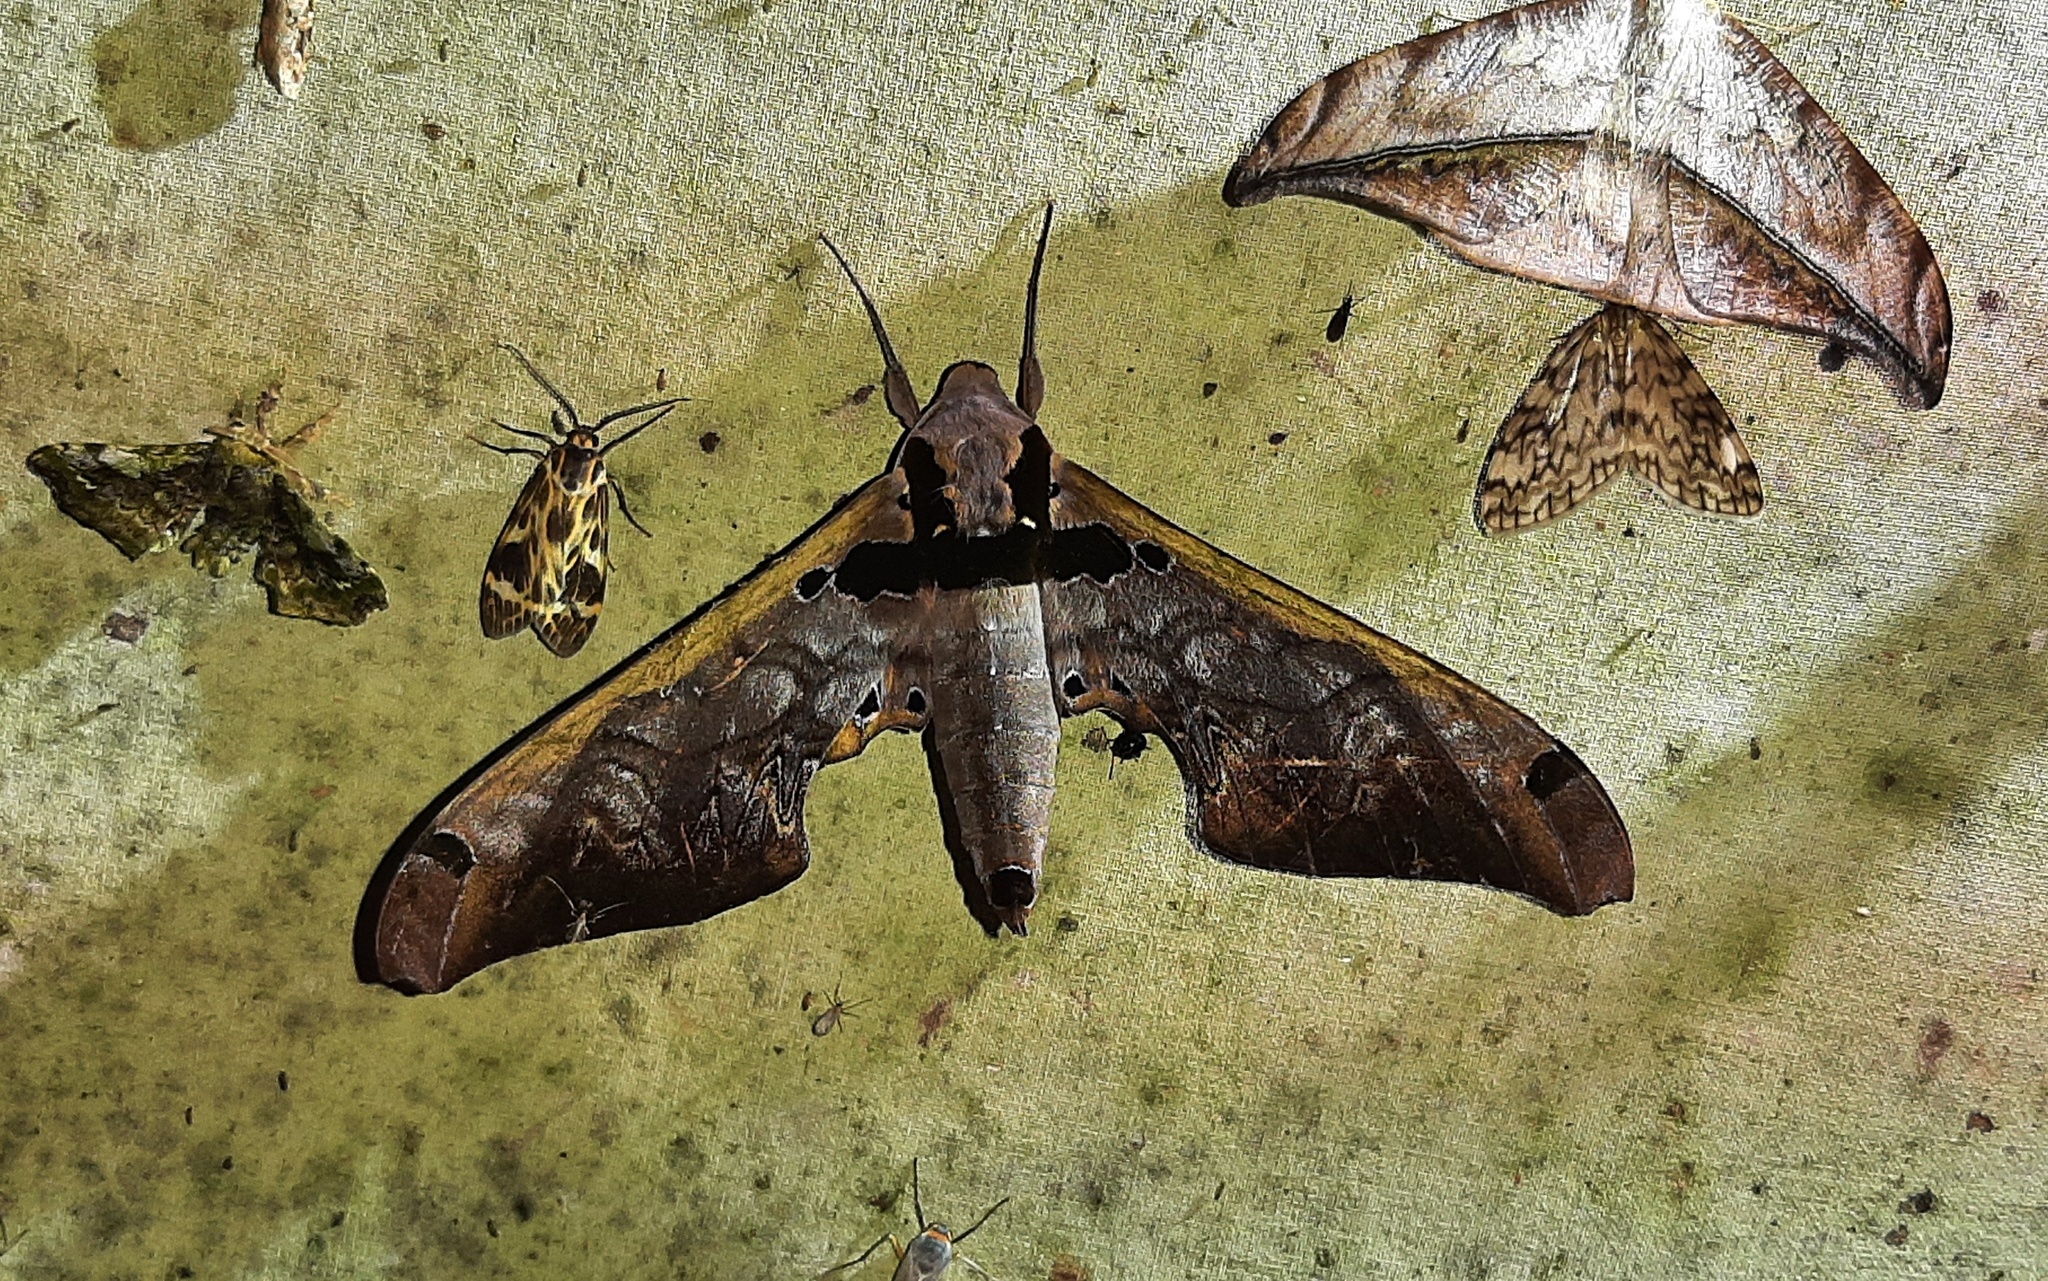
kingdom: Animalia
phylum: Arthropoda
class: Insecta
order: Lepidoptera
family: Sphingidae
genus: Adhemarius
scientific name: Adhemarius sexoculata
